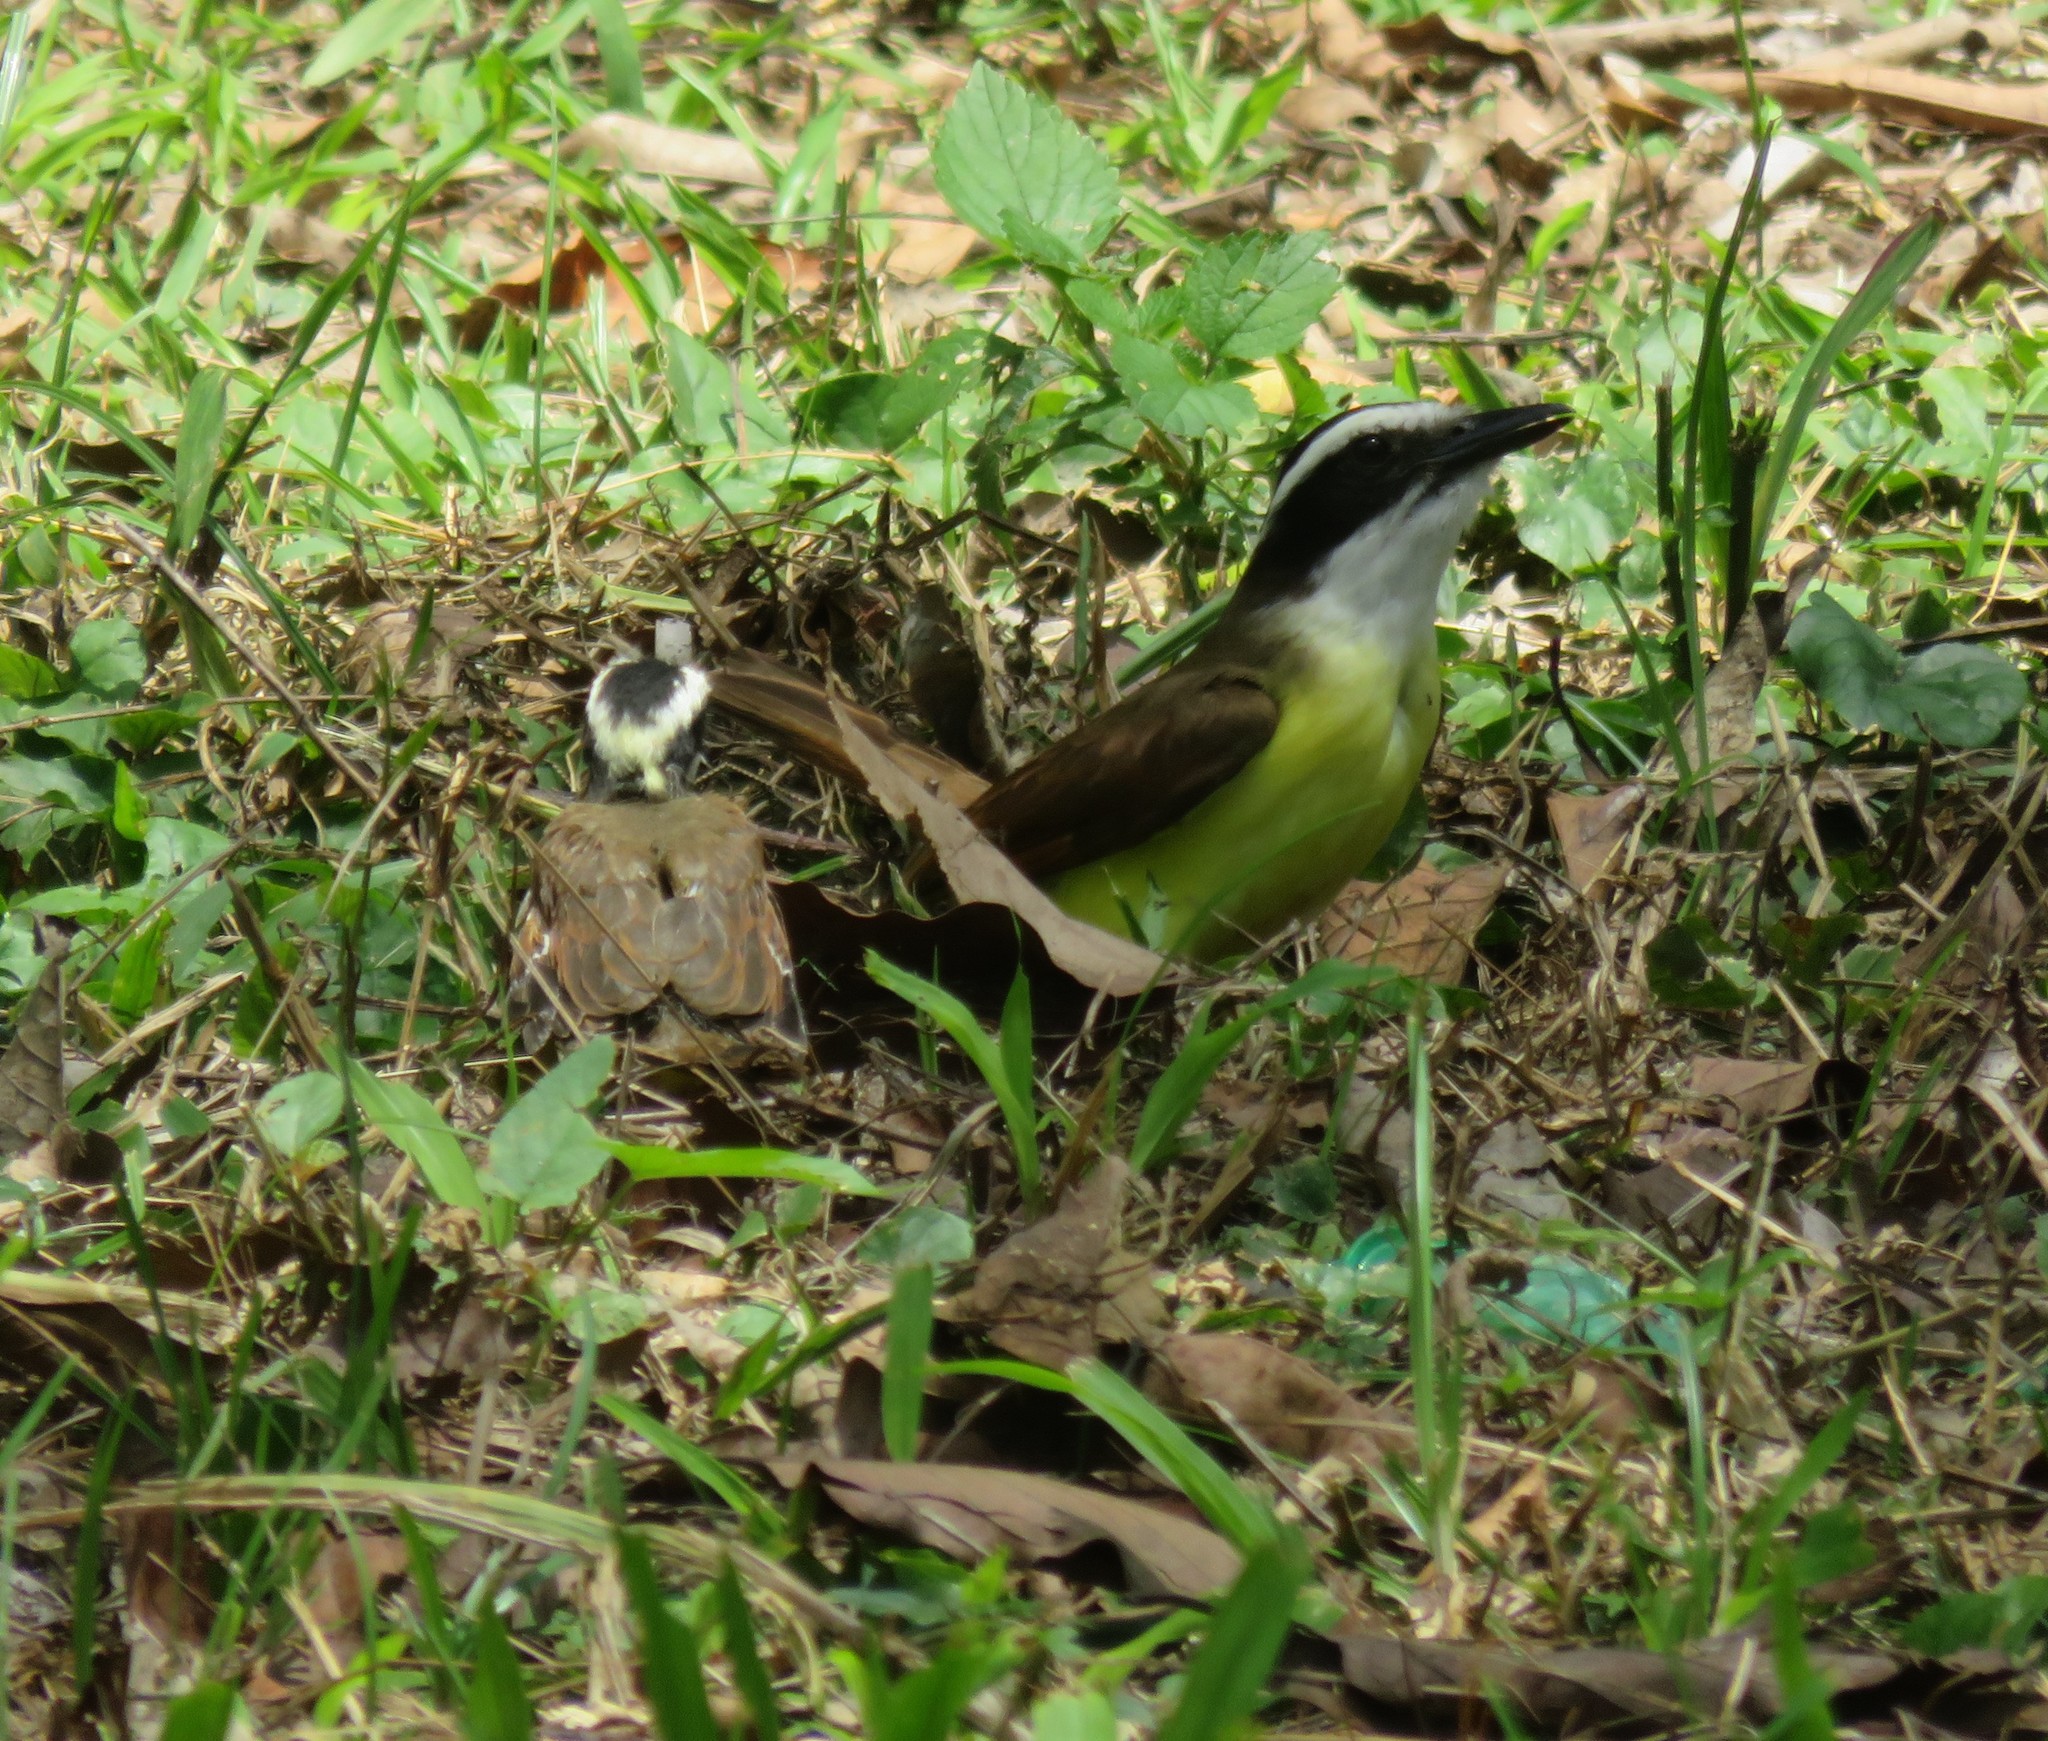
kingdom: Animalia
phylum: Chordata
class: Aves
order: Passeriformes
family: Tyrannidae
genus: Pitangus
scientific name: Pitangus sulphuratus
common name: Great kiskadee
